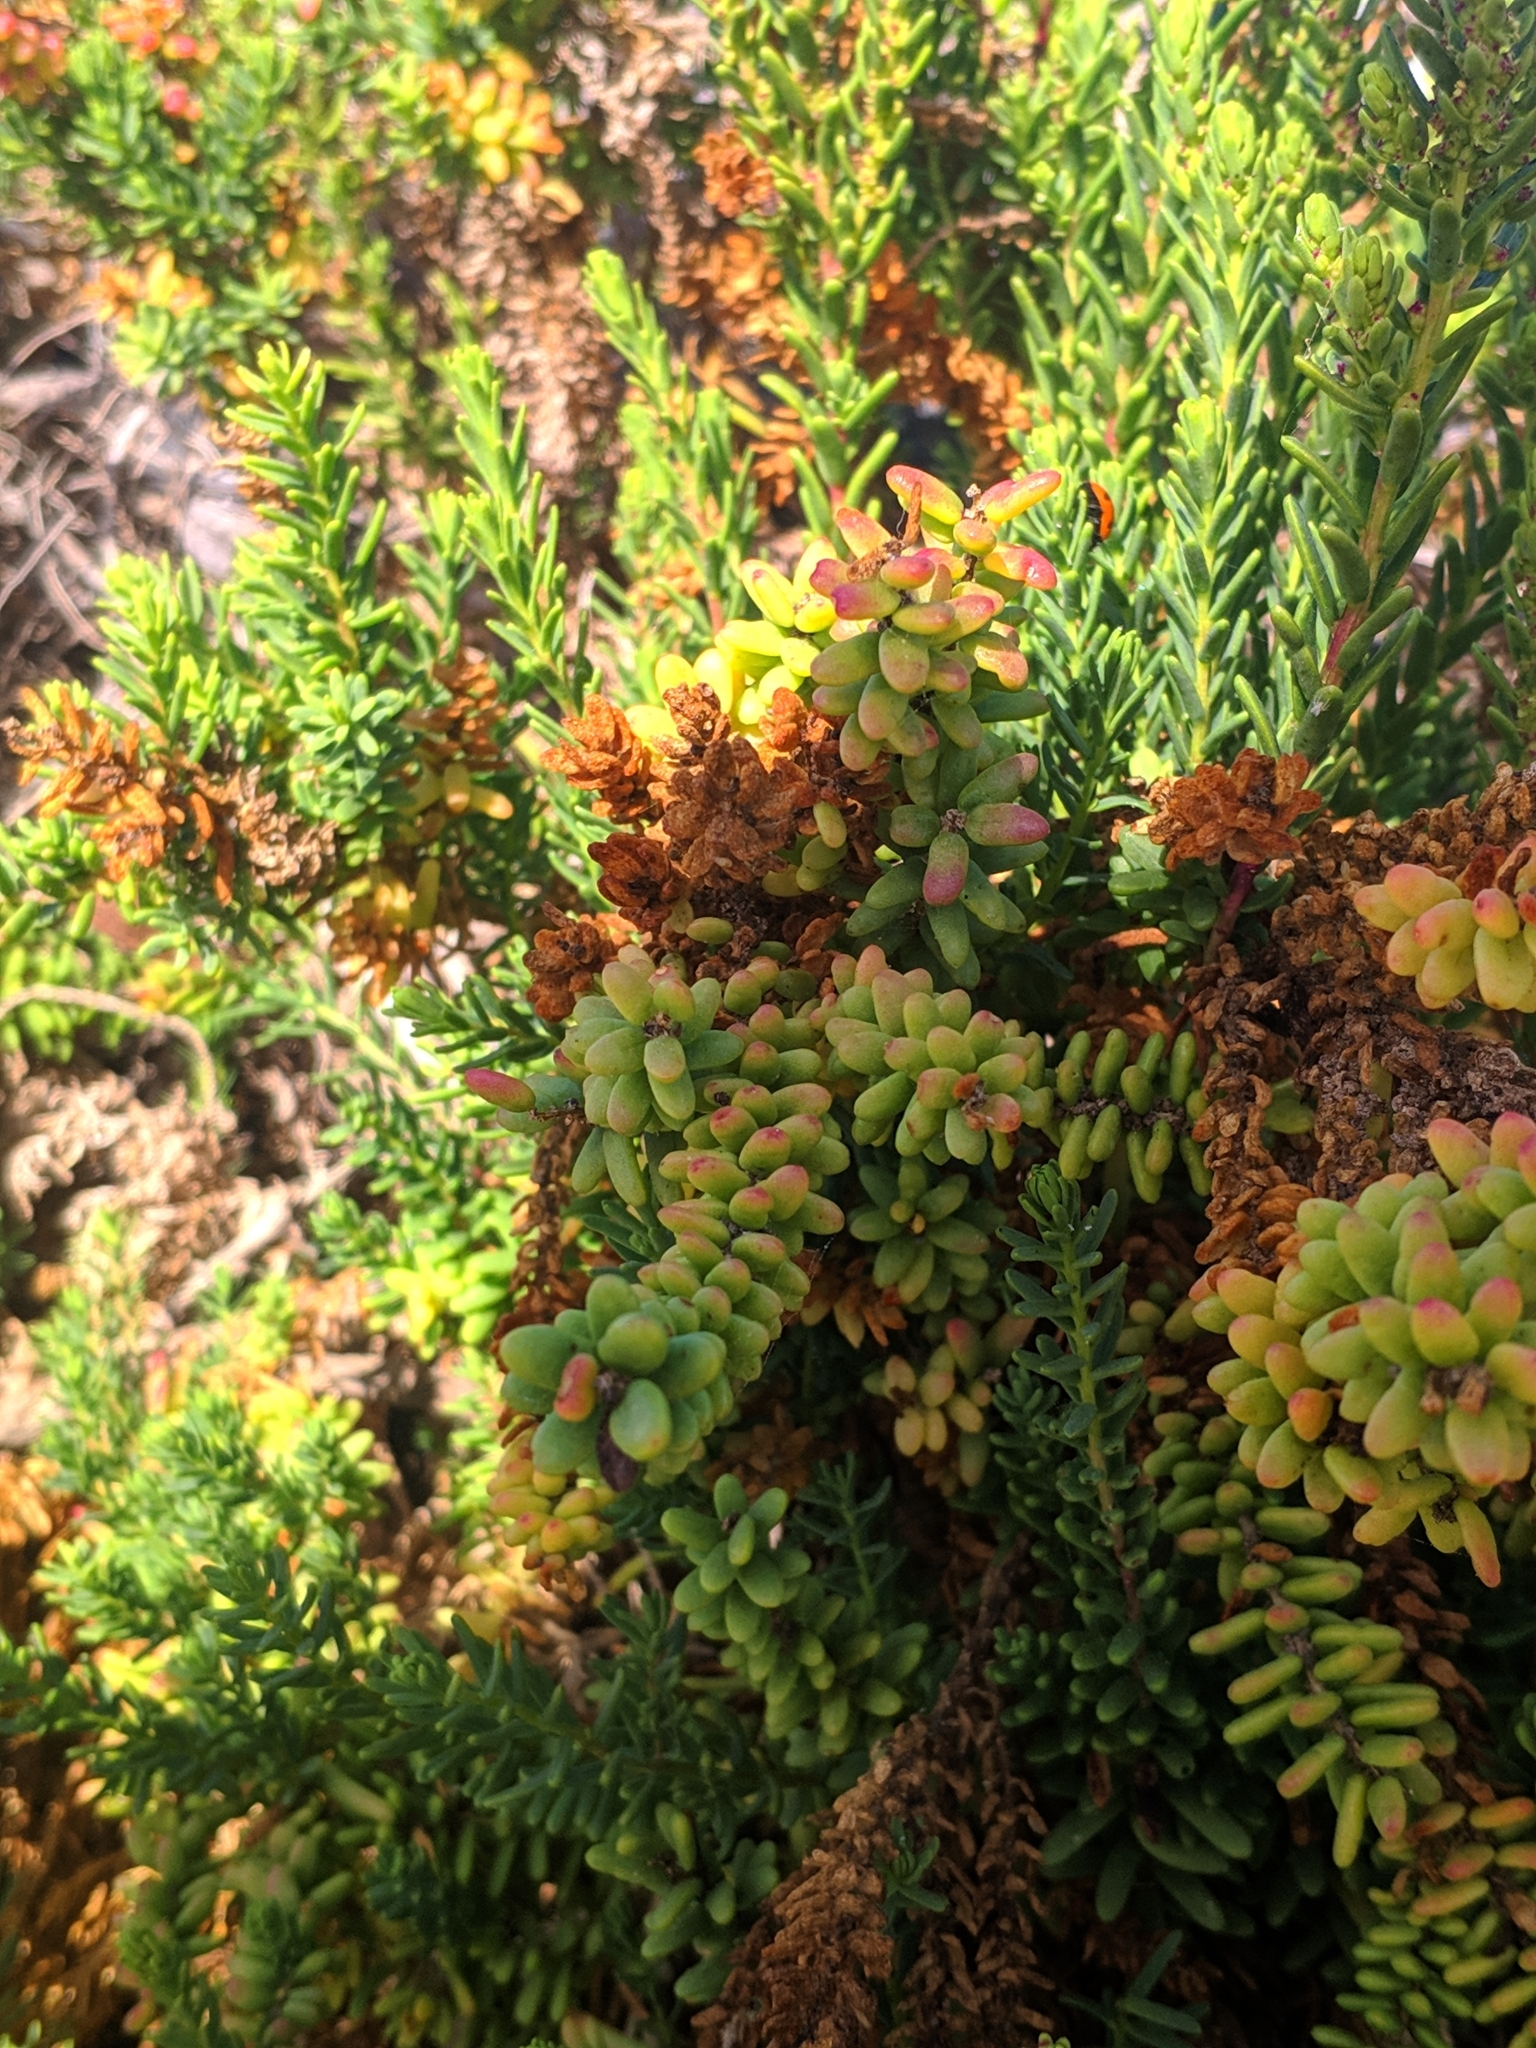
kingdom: Plantae
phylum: Tracheophyta
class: Magnoliopsida
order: Caryophyllales
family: Amaranthaceae
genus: Suaeda
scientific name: Suaeda vera
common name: Shrubby sea-blite
